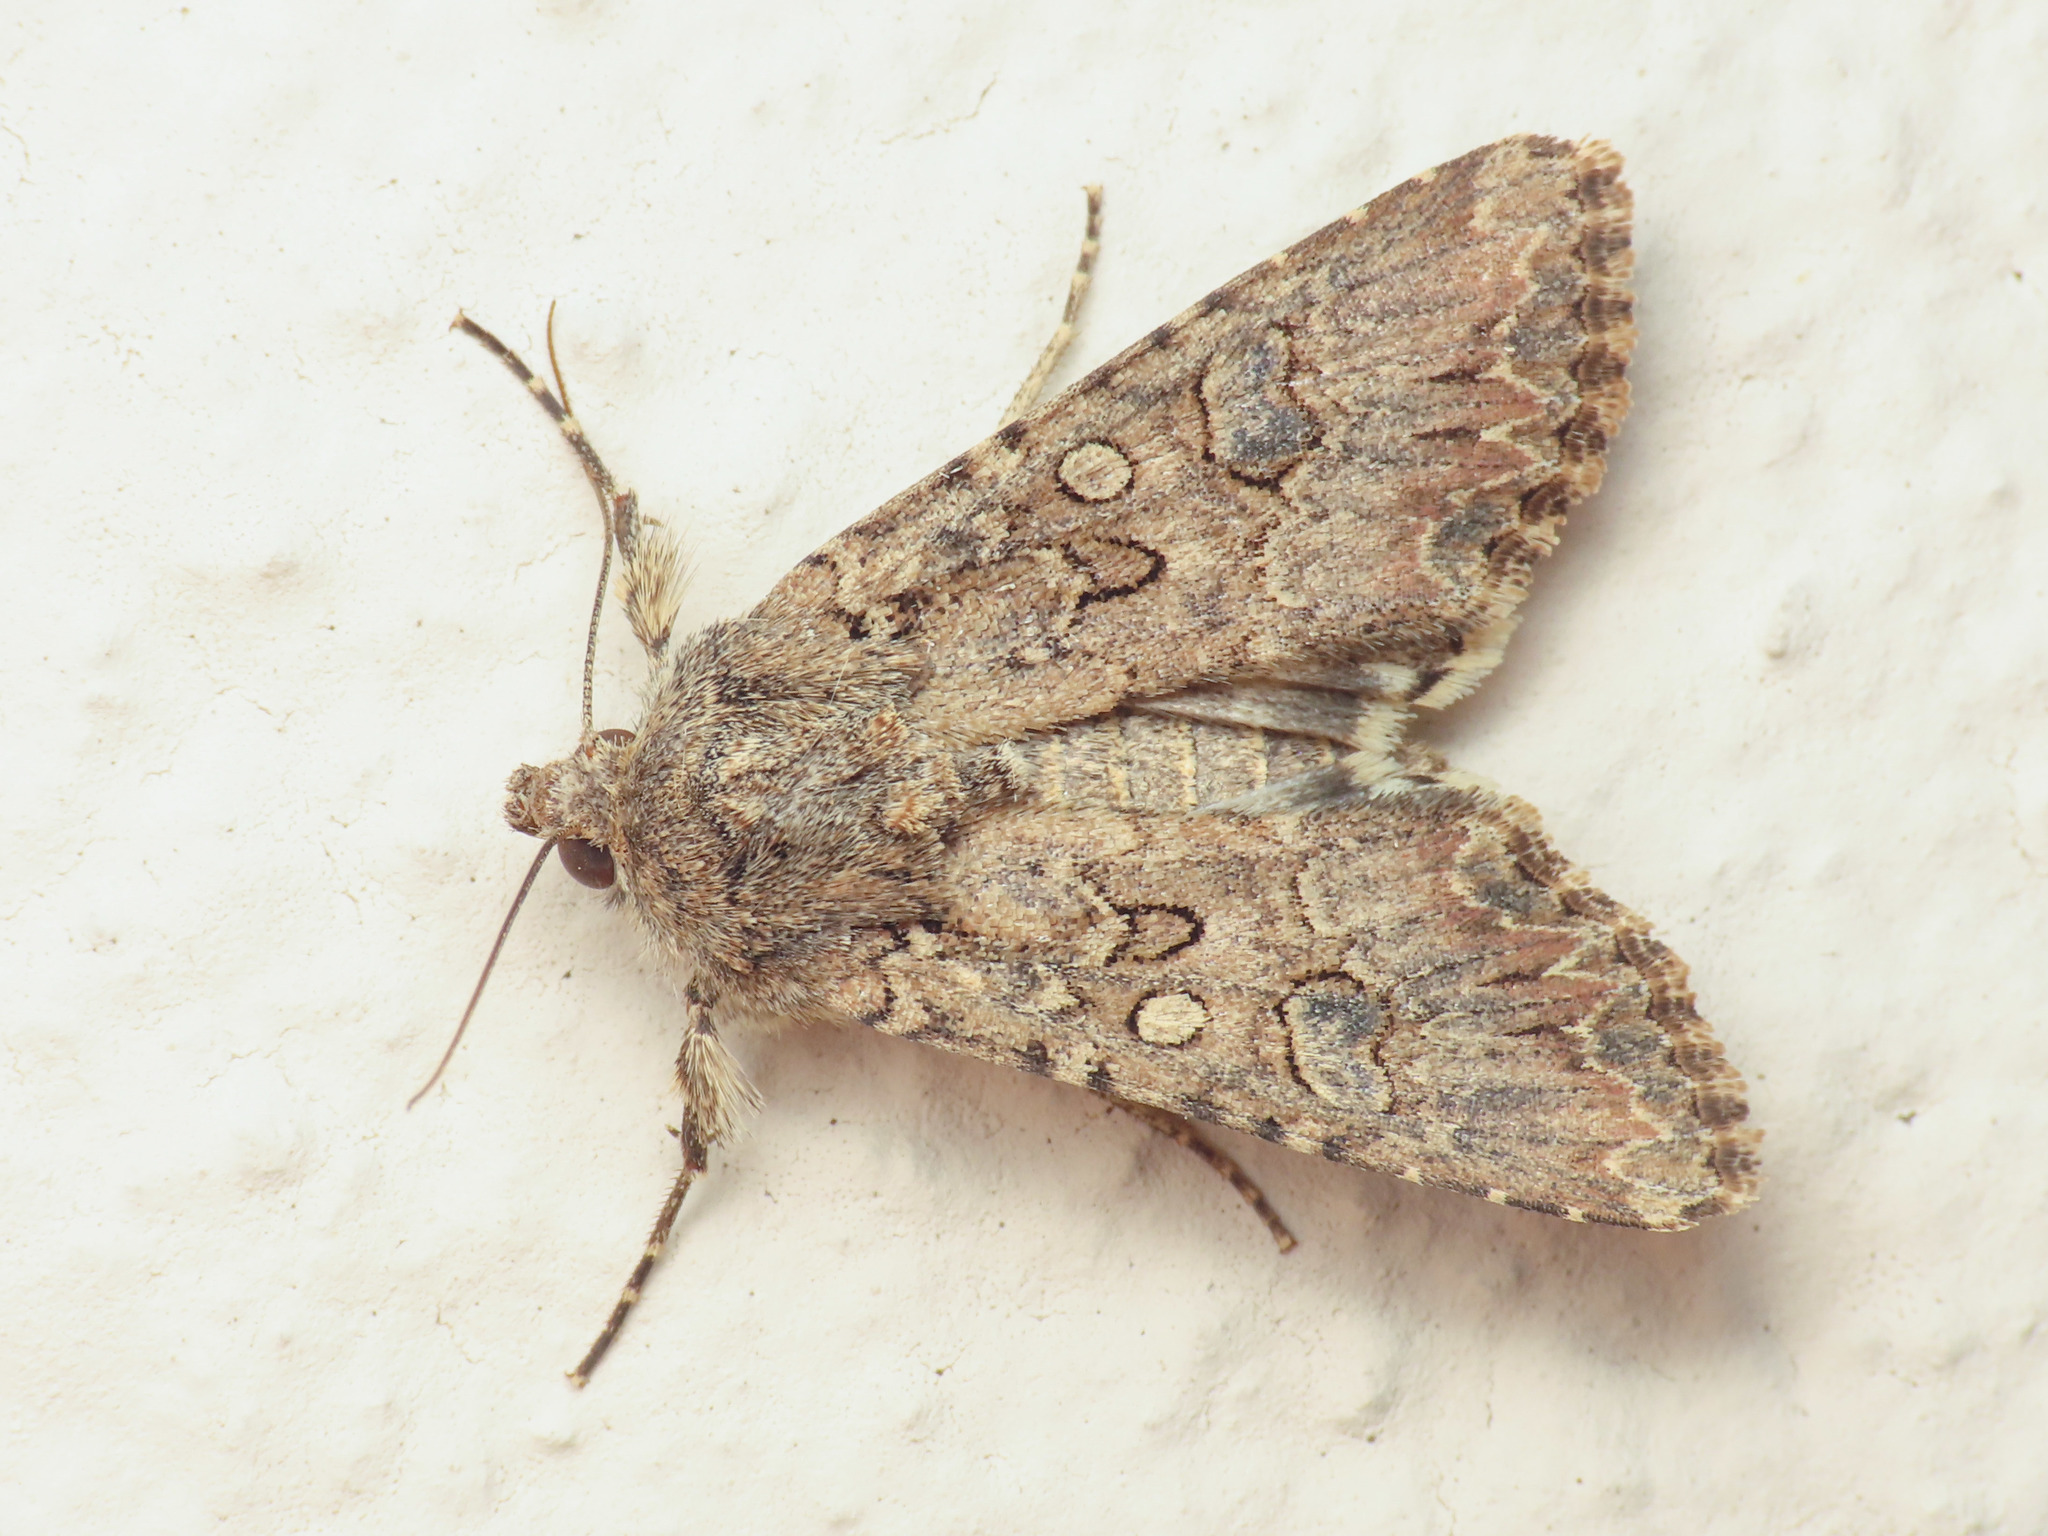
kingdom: Animalia
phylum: Arthropoda
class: Insecta
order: Lepidoptera
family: Noctuidae
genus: Anarta
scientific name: Anarta trifolii
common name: Clover cutworm moth
